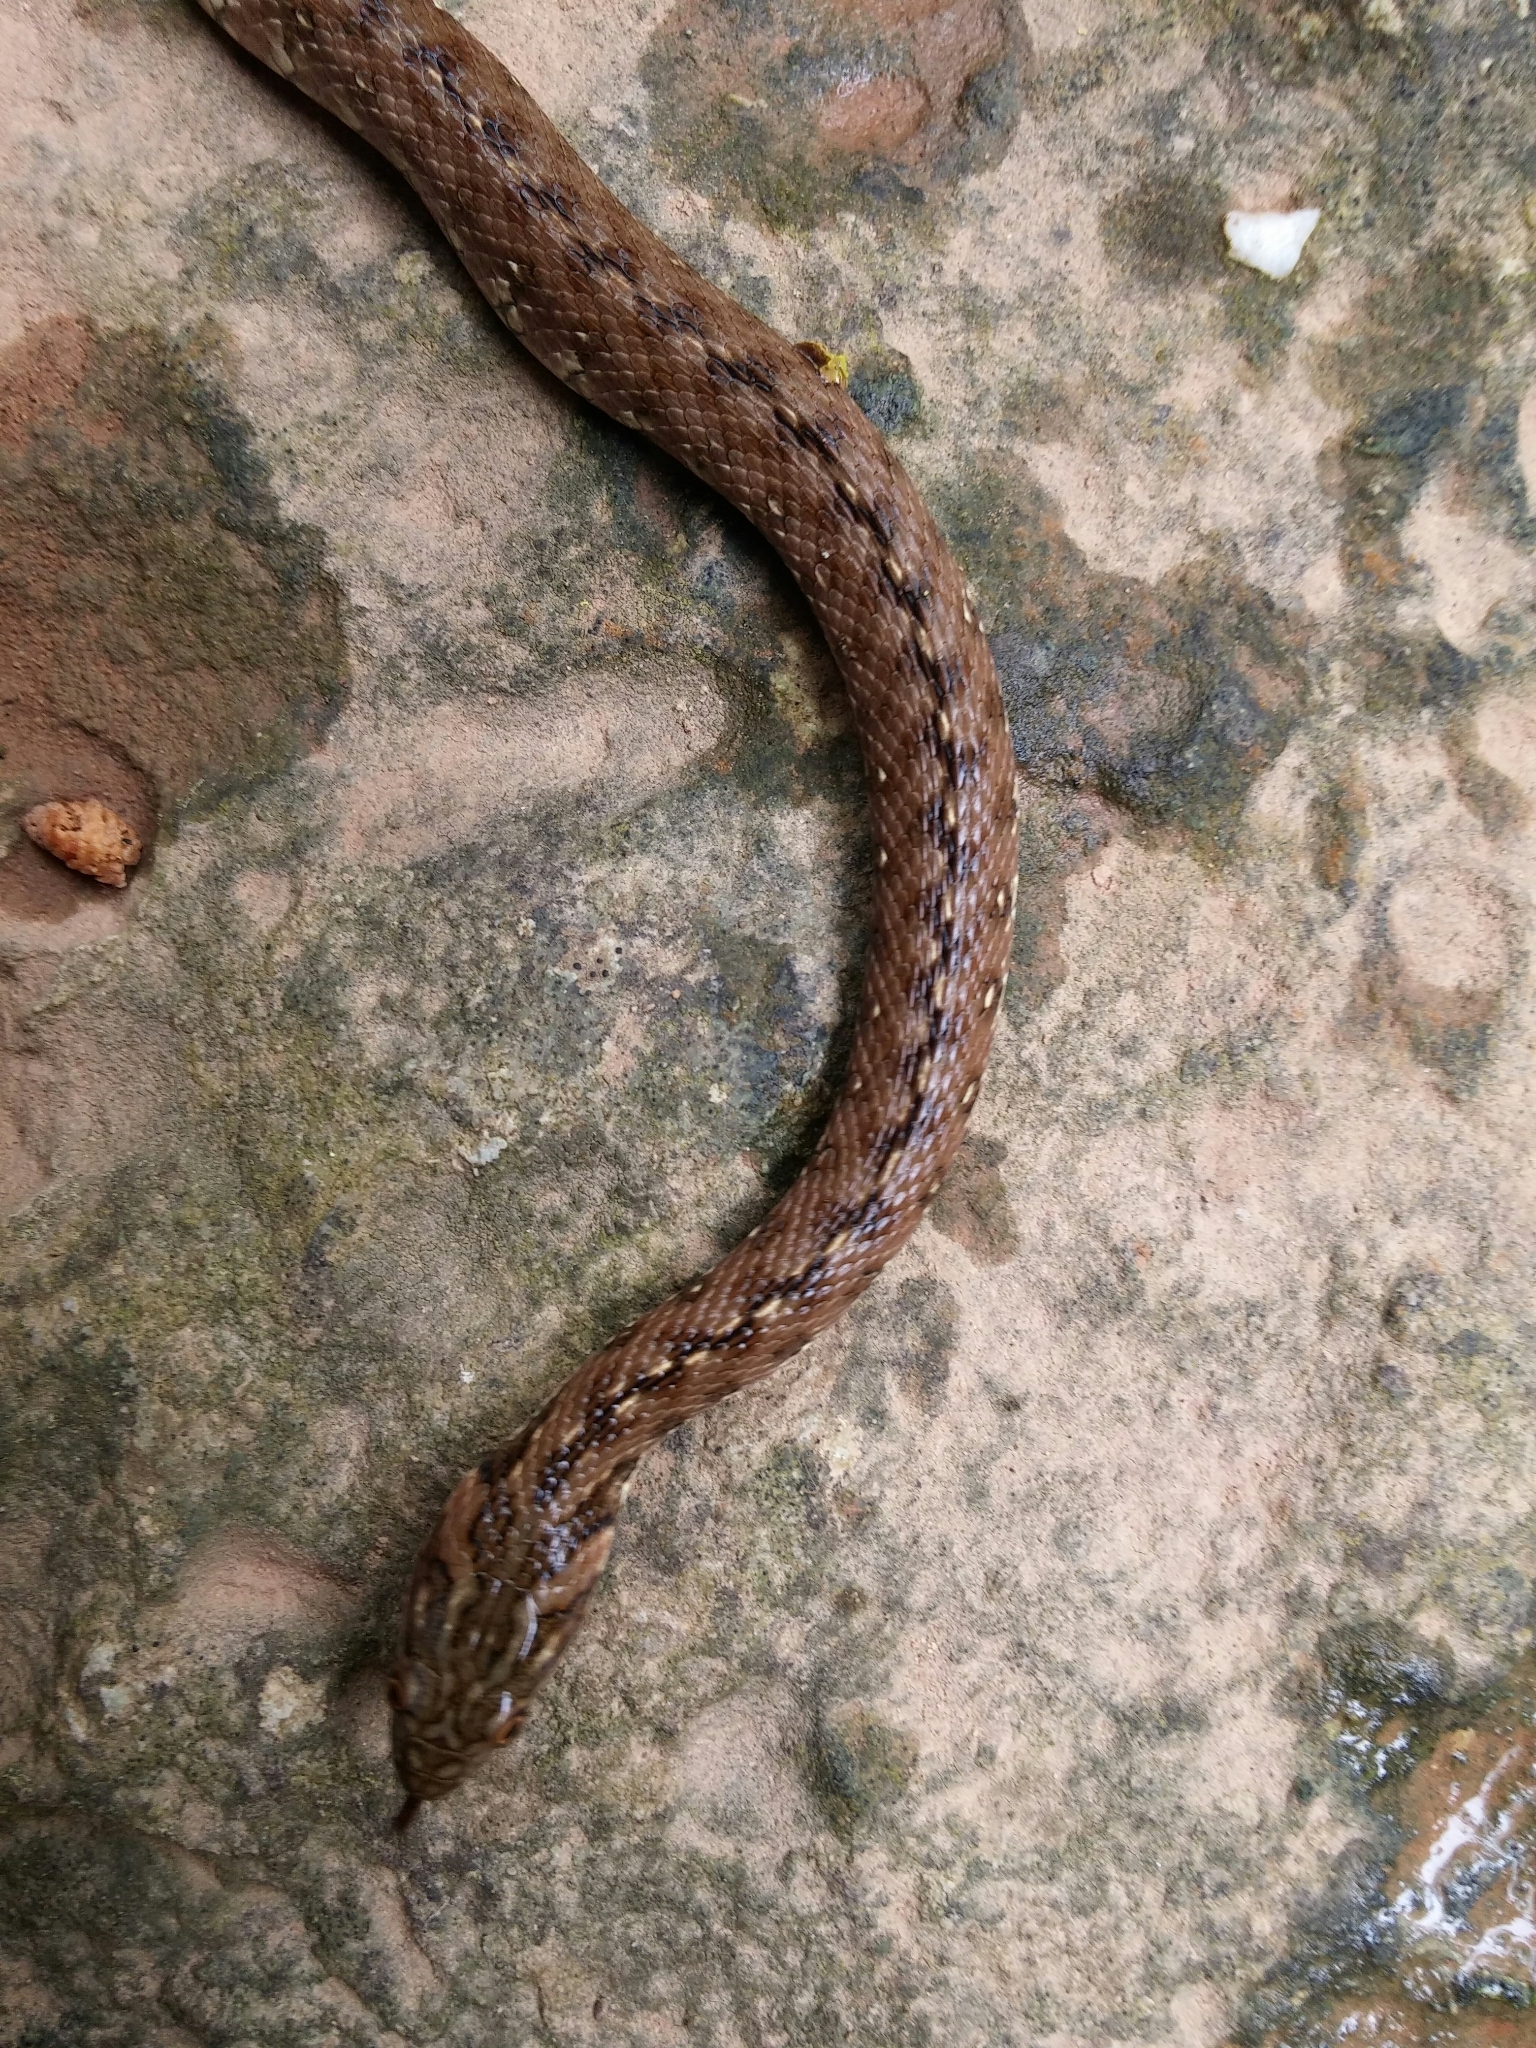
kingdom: Animalia
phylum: Chordata
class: Squamata
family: Colubridae
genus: Natrix
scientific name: Natrix maura
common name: Viperine water snake
